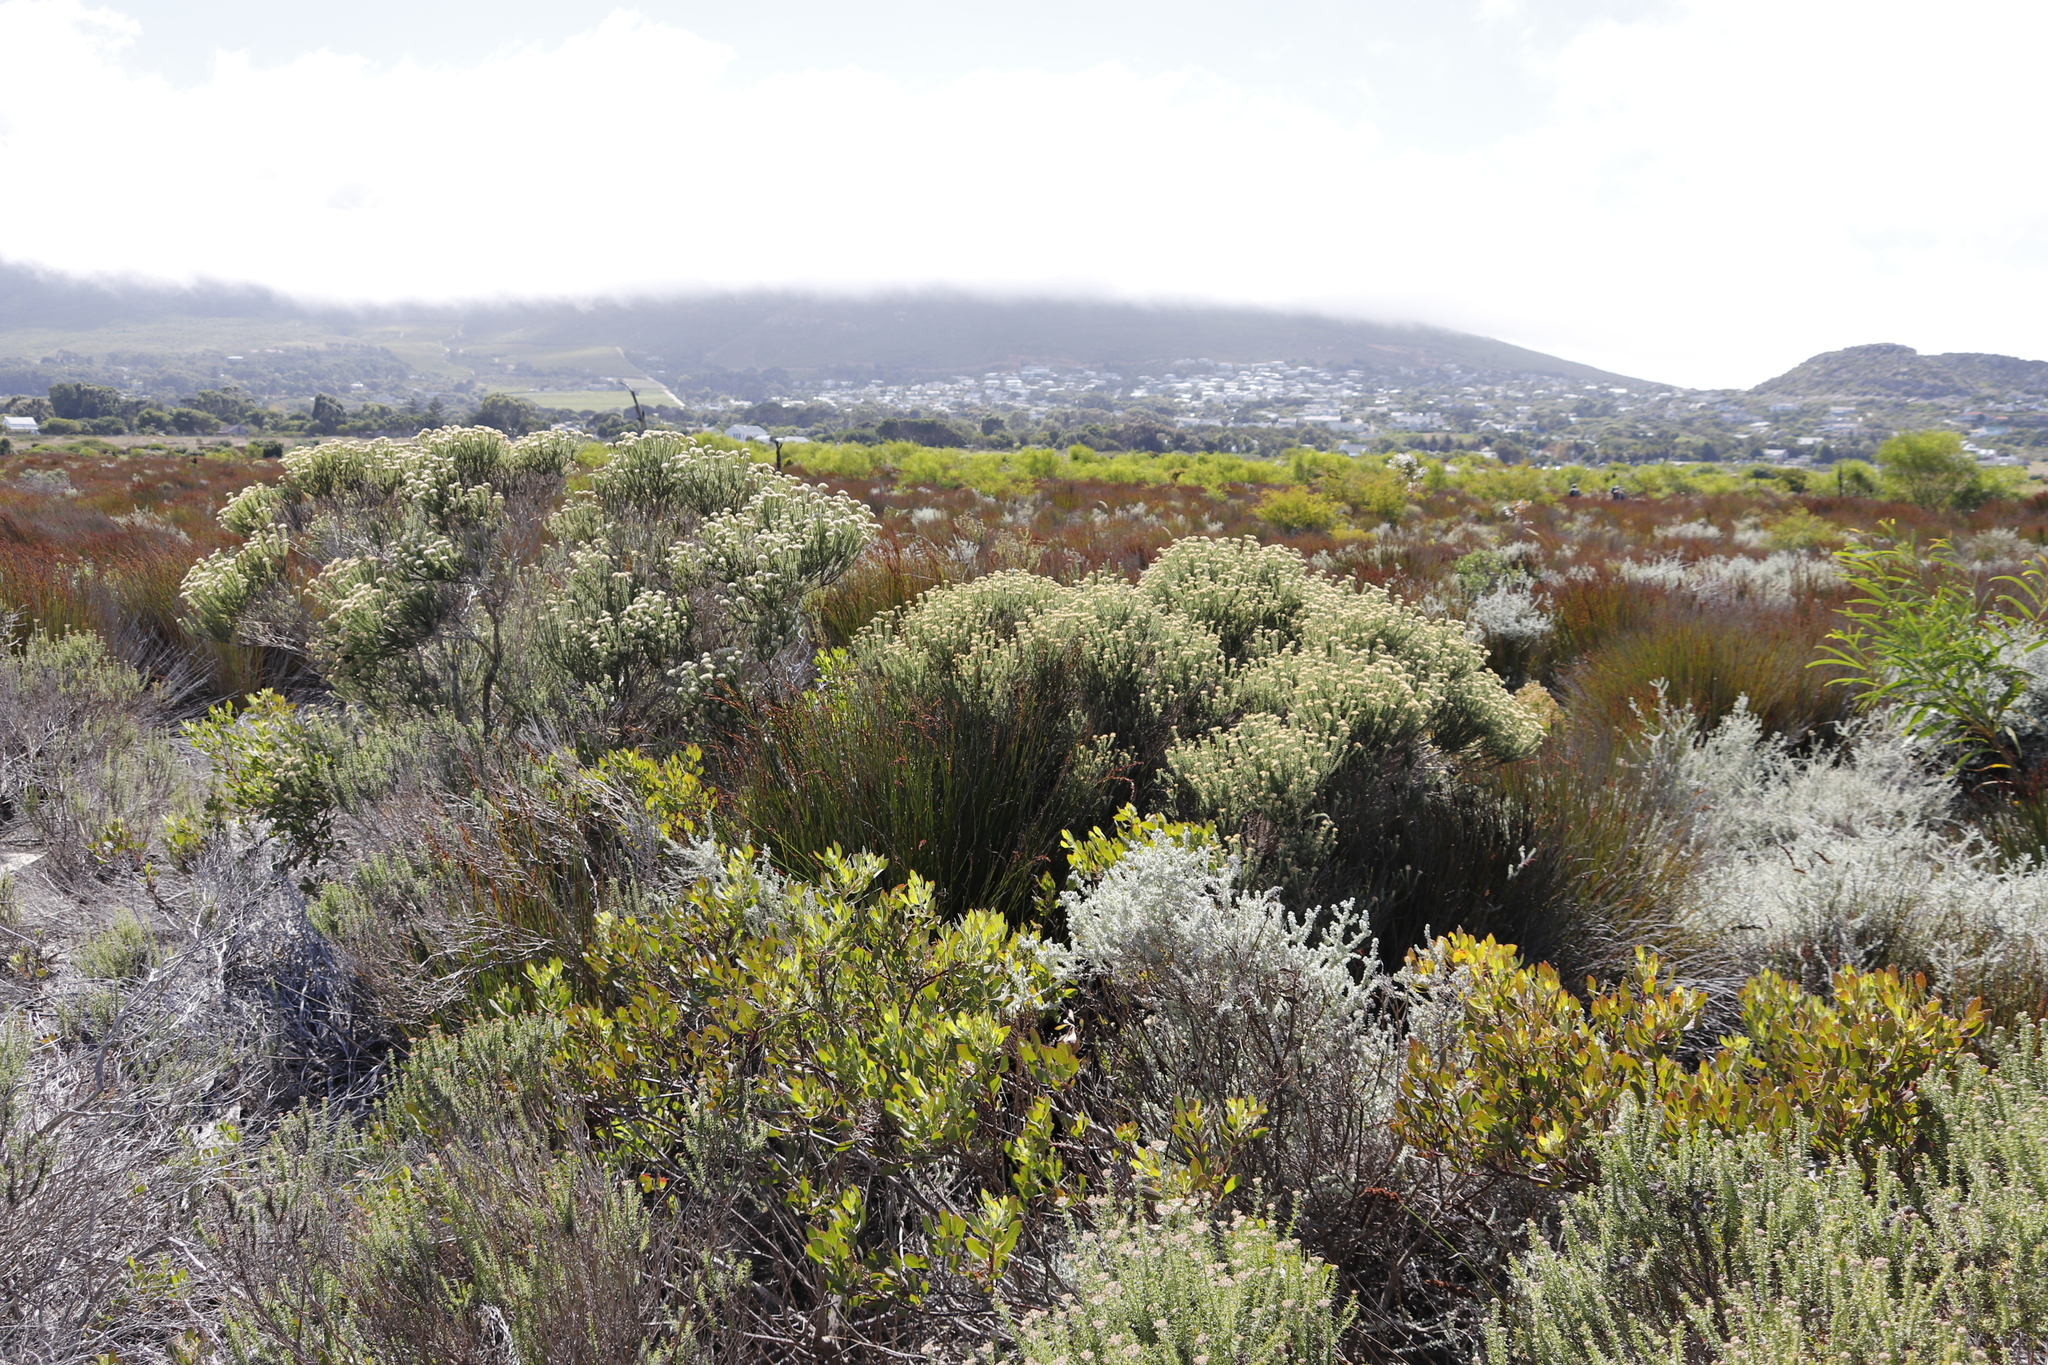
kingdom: Plantae
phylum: Tracheophyta
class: Magnoliopsida
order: Asterales
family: Asteraceae
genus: Osteospermum
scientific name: Osteospermum moniliferum
